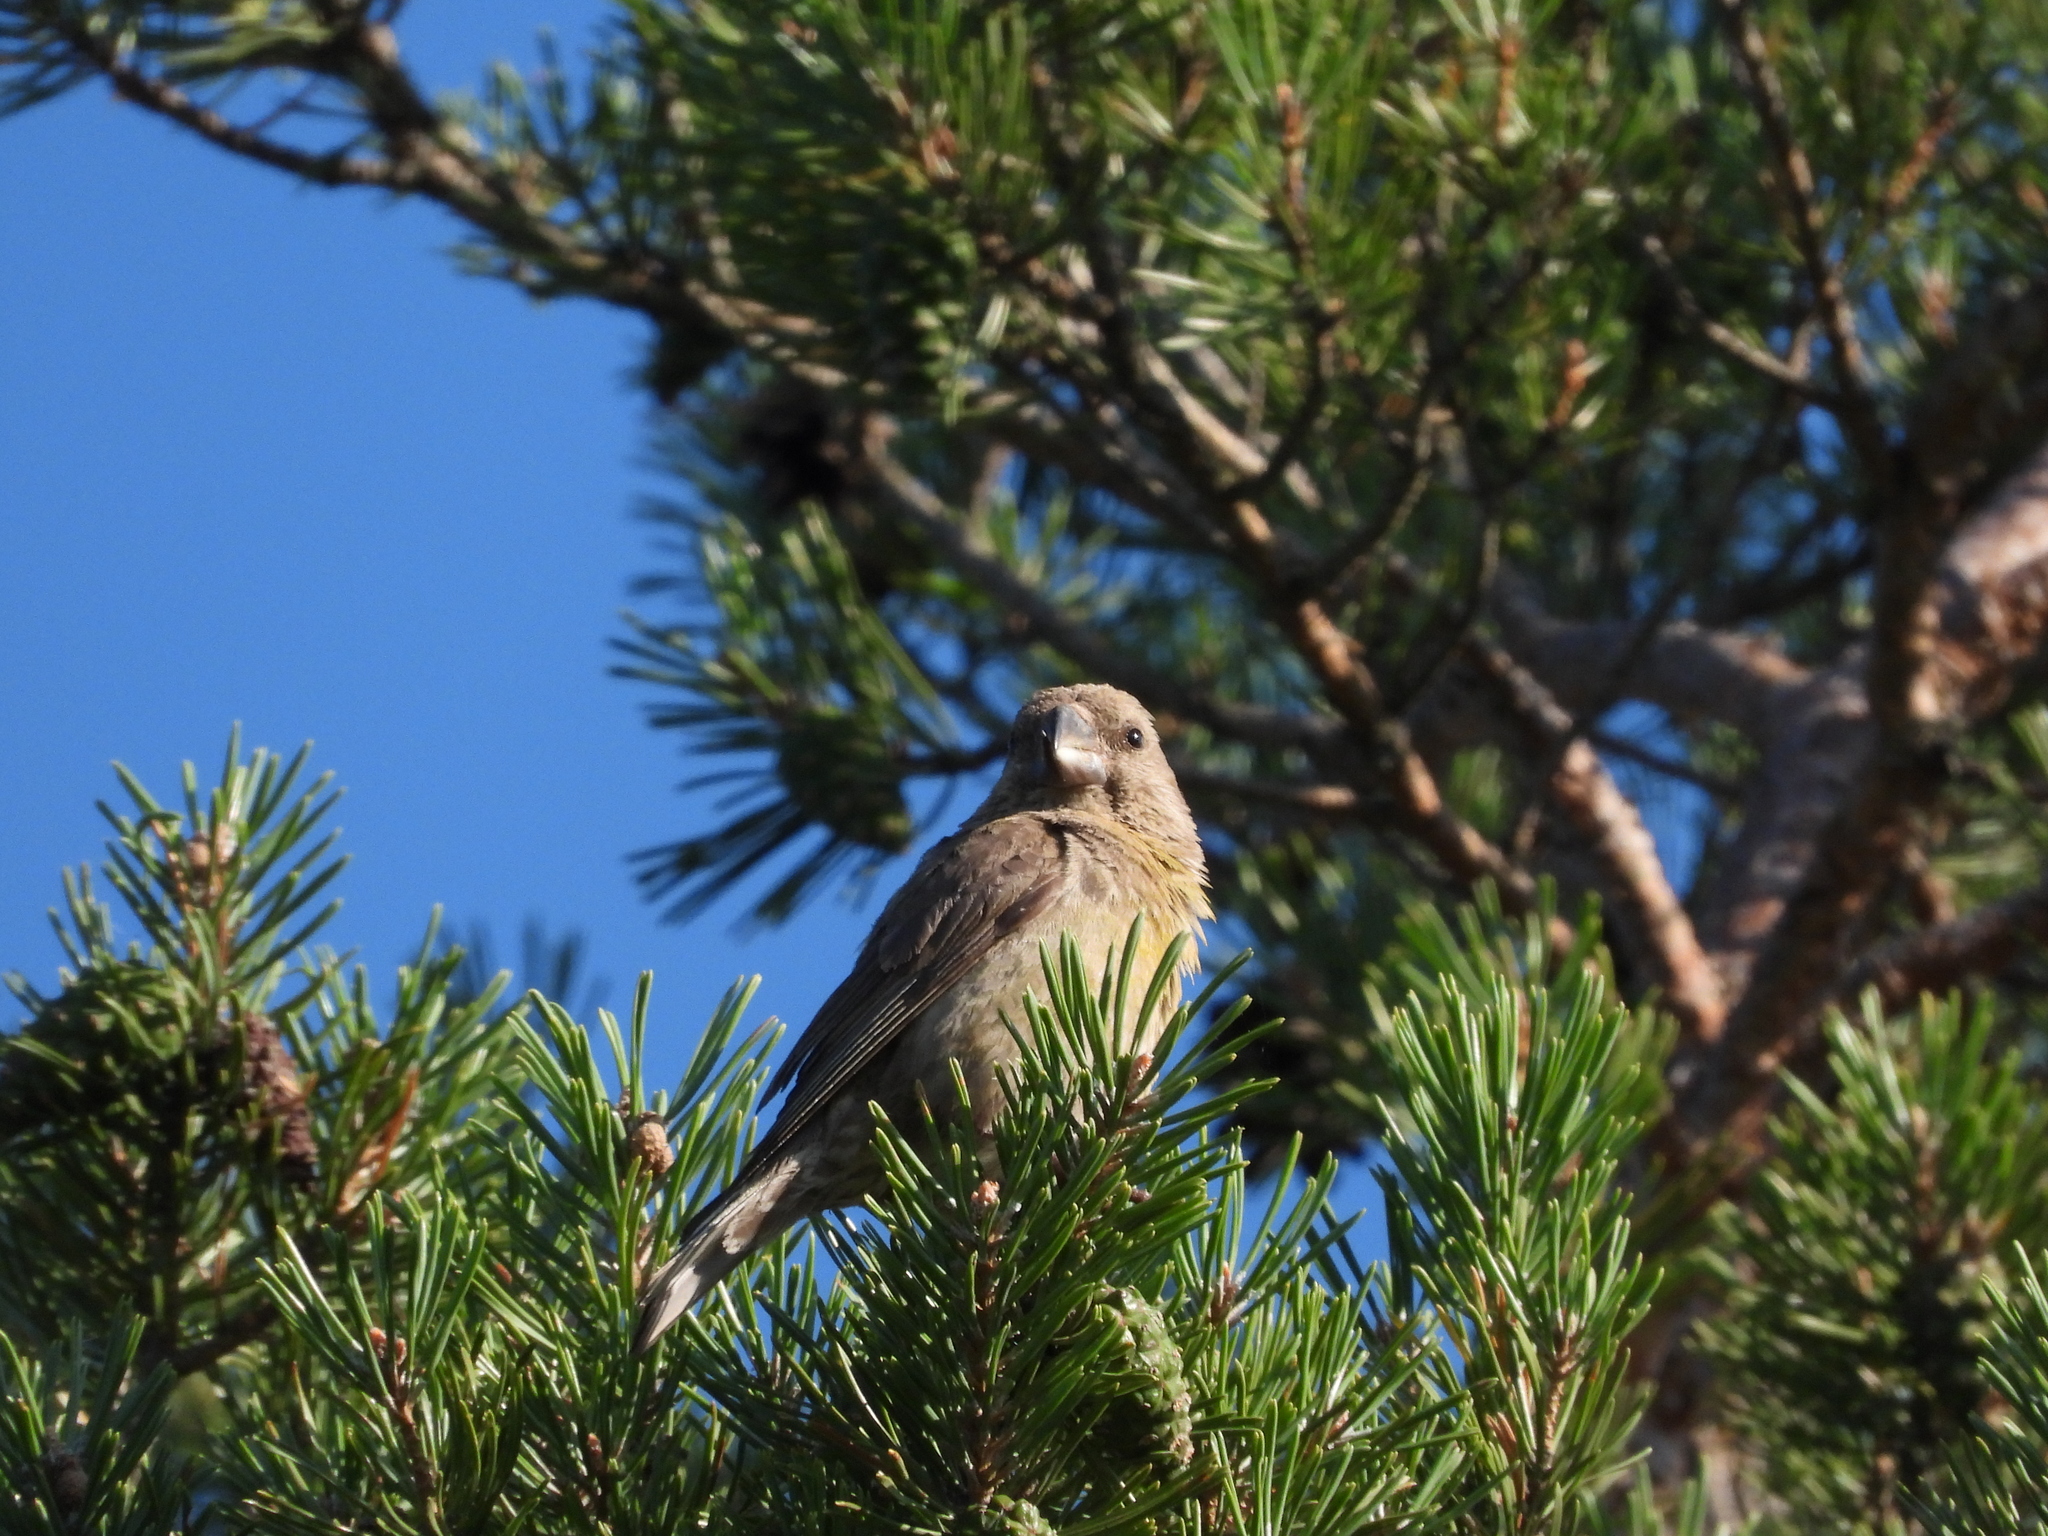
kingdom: Animalia
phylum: Chordata
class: Aves
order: Passeriformes
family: Fringillidae
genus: Loxia
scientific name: Loxia pytyopsittacus
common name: Parrot crossbill
